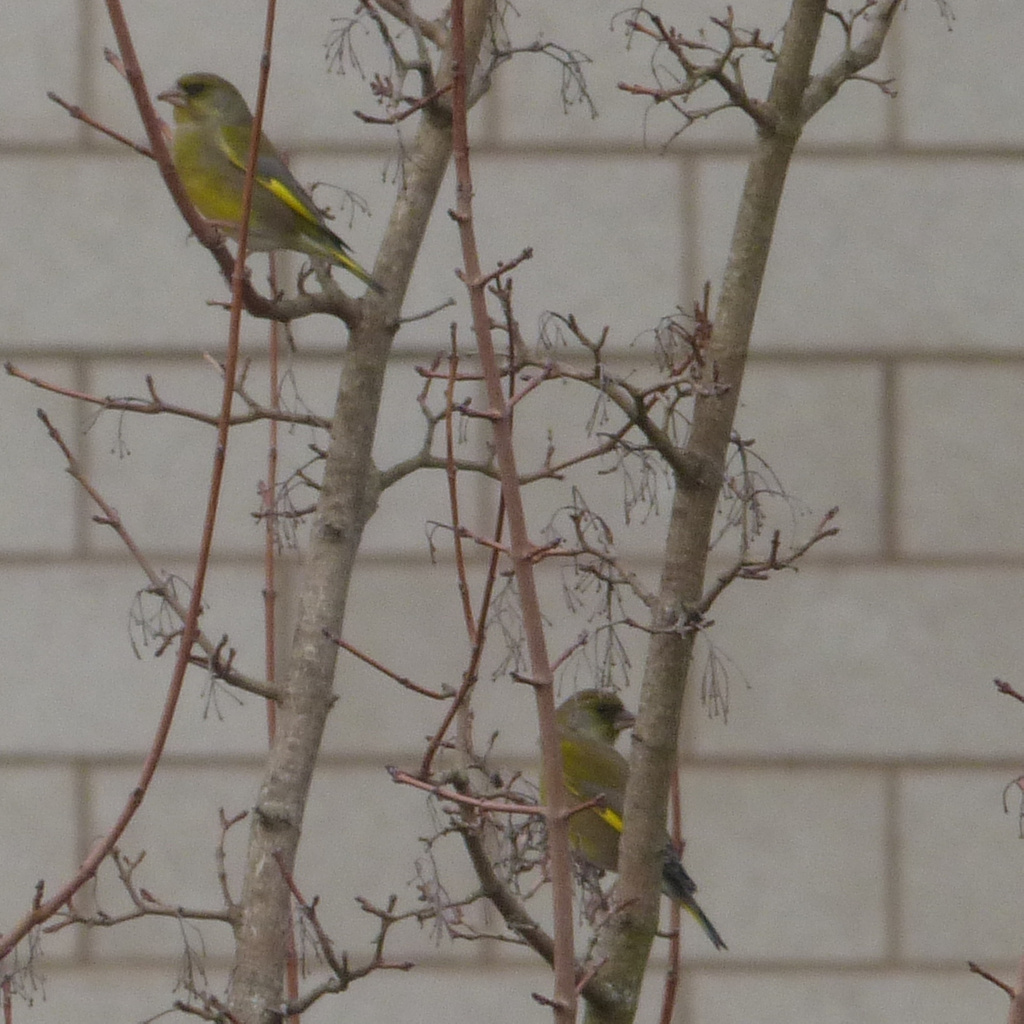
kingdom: Plantae
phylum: Tracheophyta
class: Liliopsida
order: Poales
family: Poaceae
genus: Chloris
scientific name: Chloris chloris
